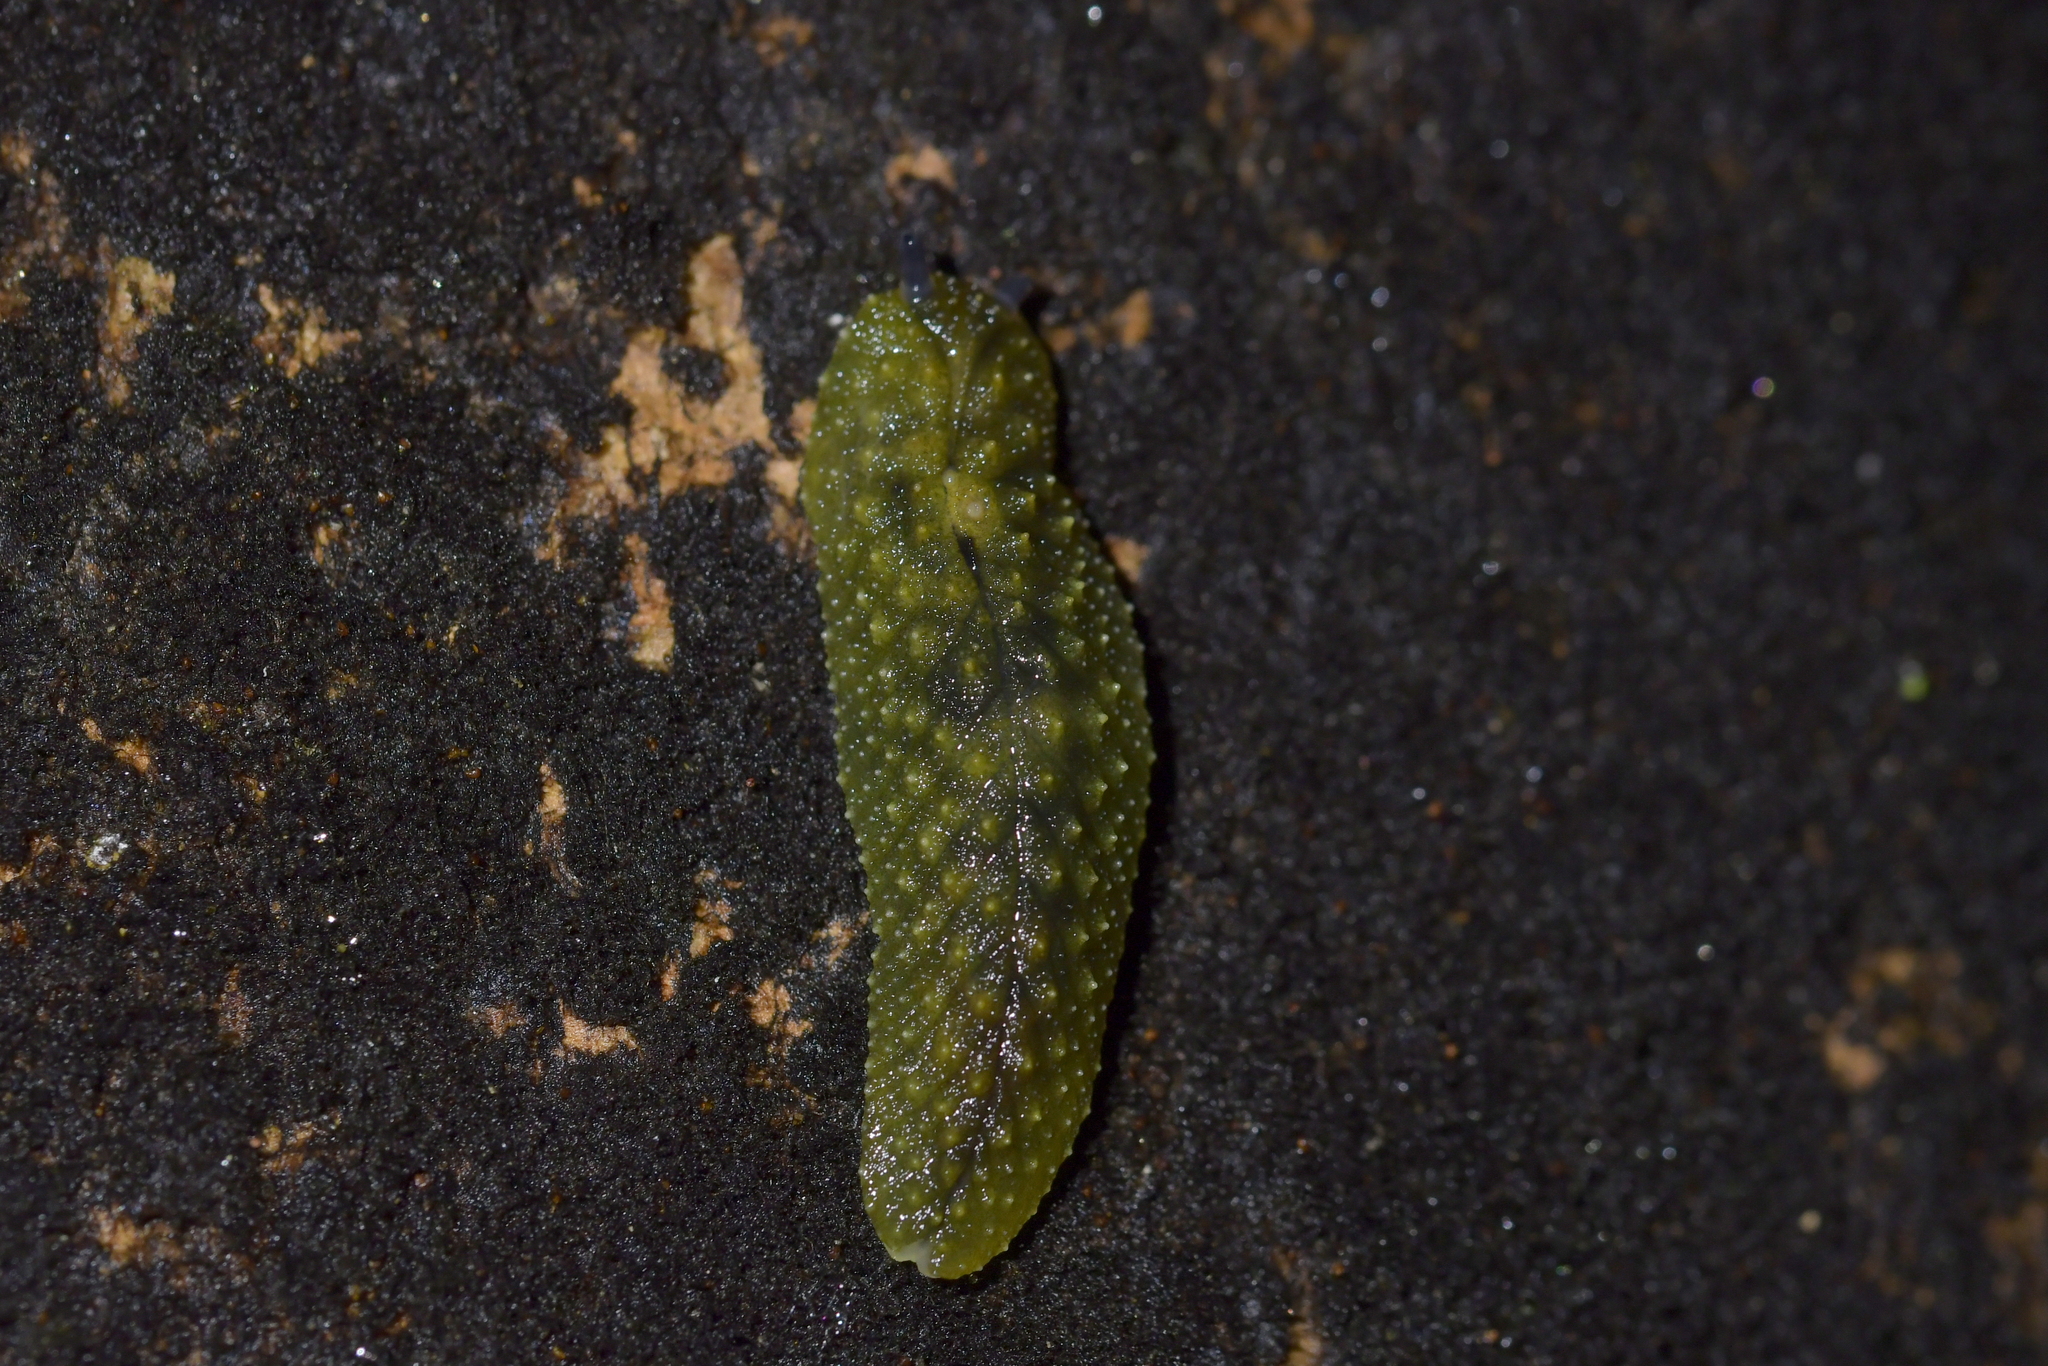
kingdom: Animalia
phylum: Mollusca
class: Gastropoda
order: Stylommatophora
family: Athoracophoridae
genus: Athoracophorus
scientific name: Athoracophorus papillatus
